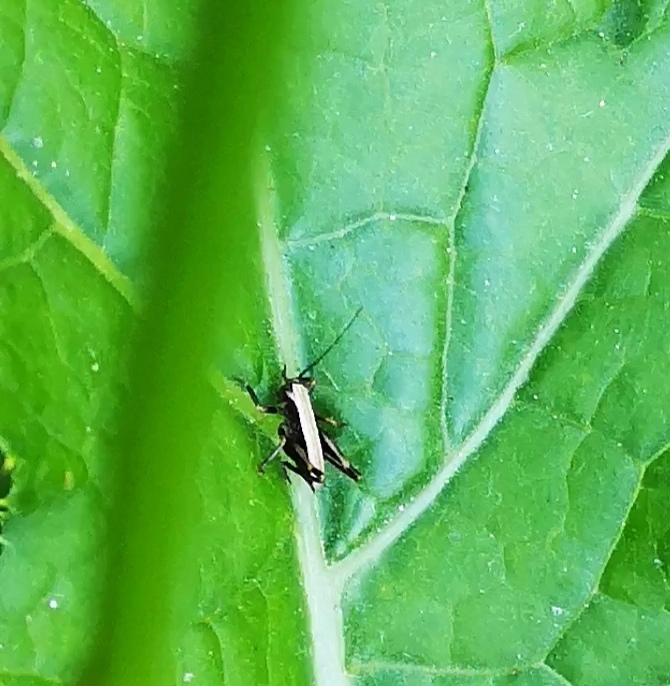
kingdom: Animalia
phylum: Arthropoda
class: Insecta
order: Orthoptera
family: Tettigoniidae
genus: Pholidoptera
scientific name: Pholidoptera griseoaptera
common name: Dark bush-cricket
